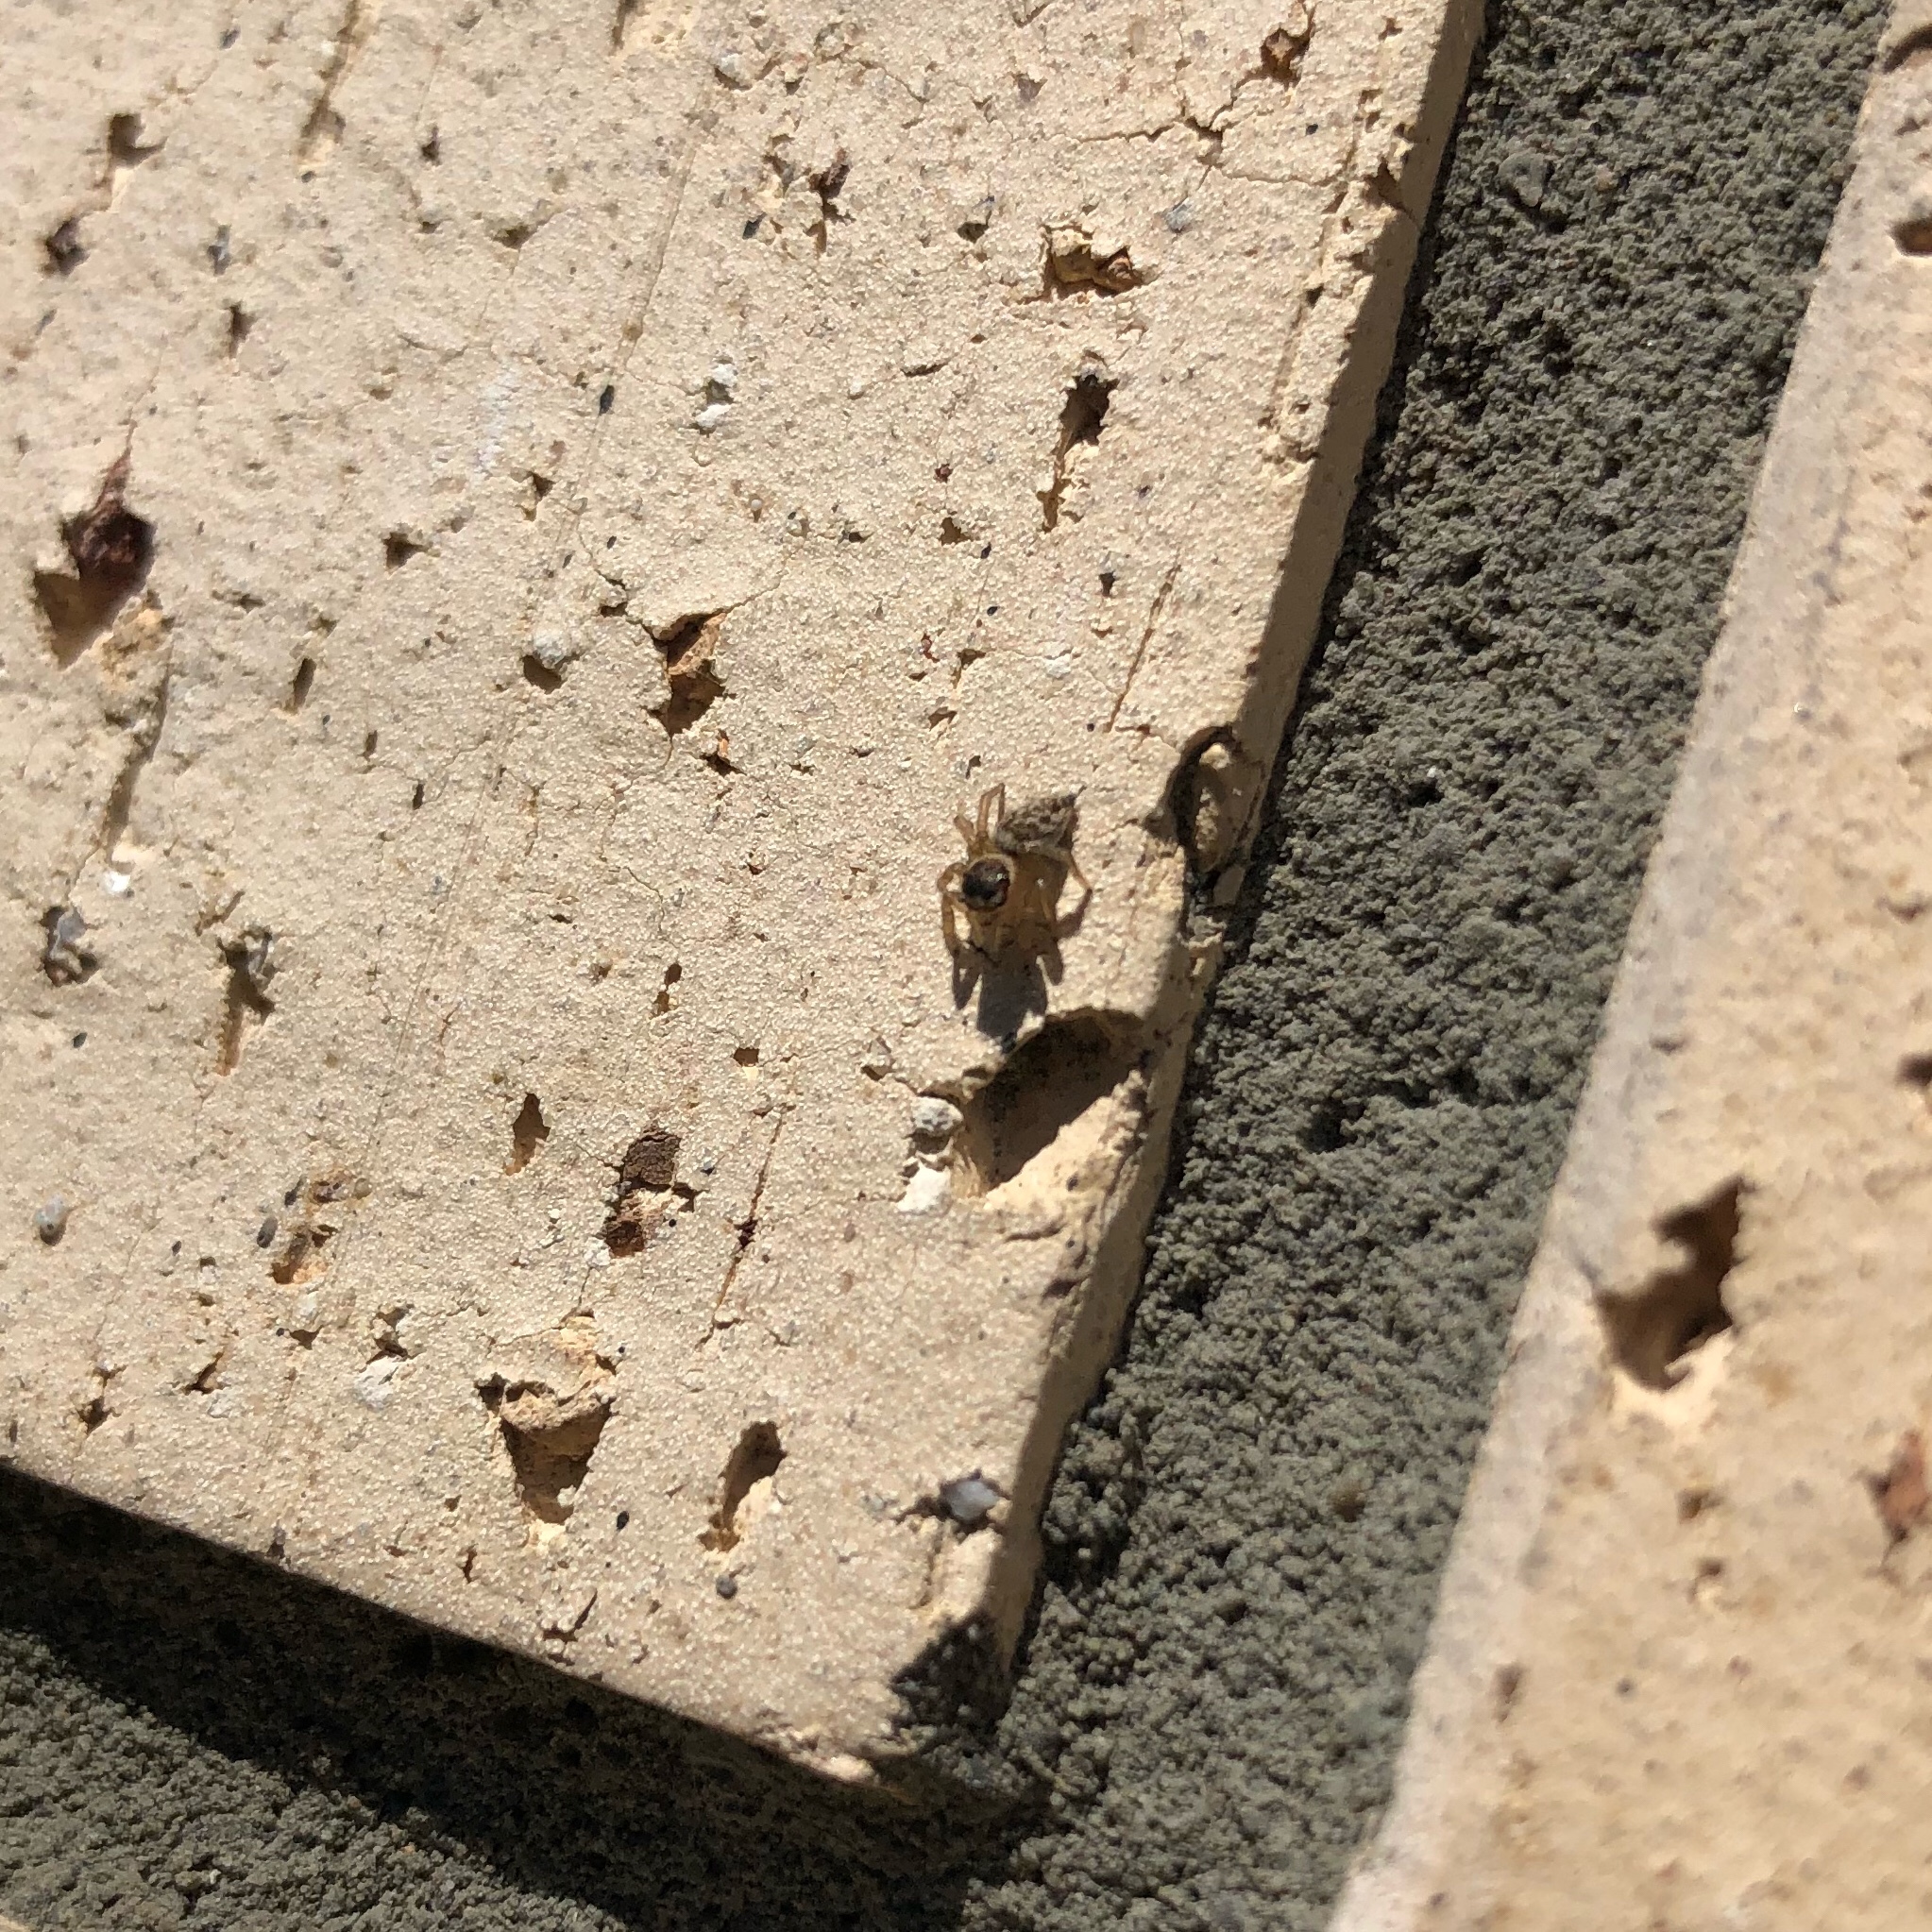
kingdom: Animalia
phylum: Arthropoda
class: Arachnida
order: Araneae
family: Salticidae
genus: Maratus
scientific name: Maratus griseus
